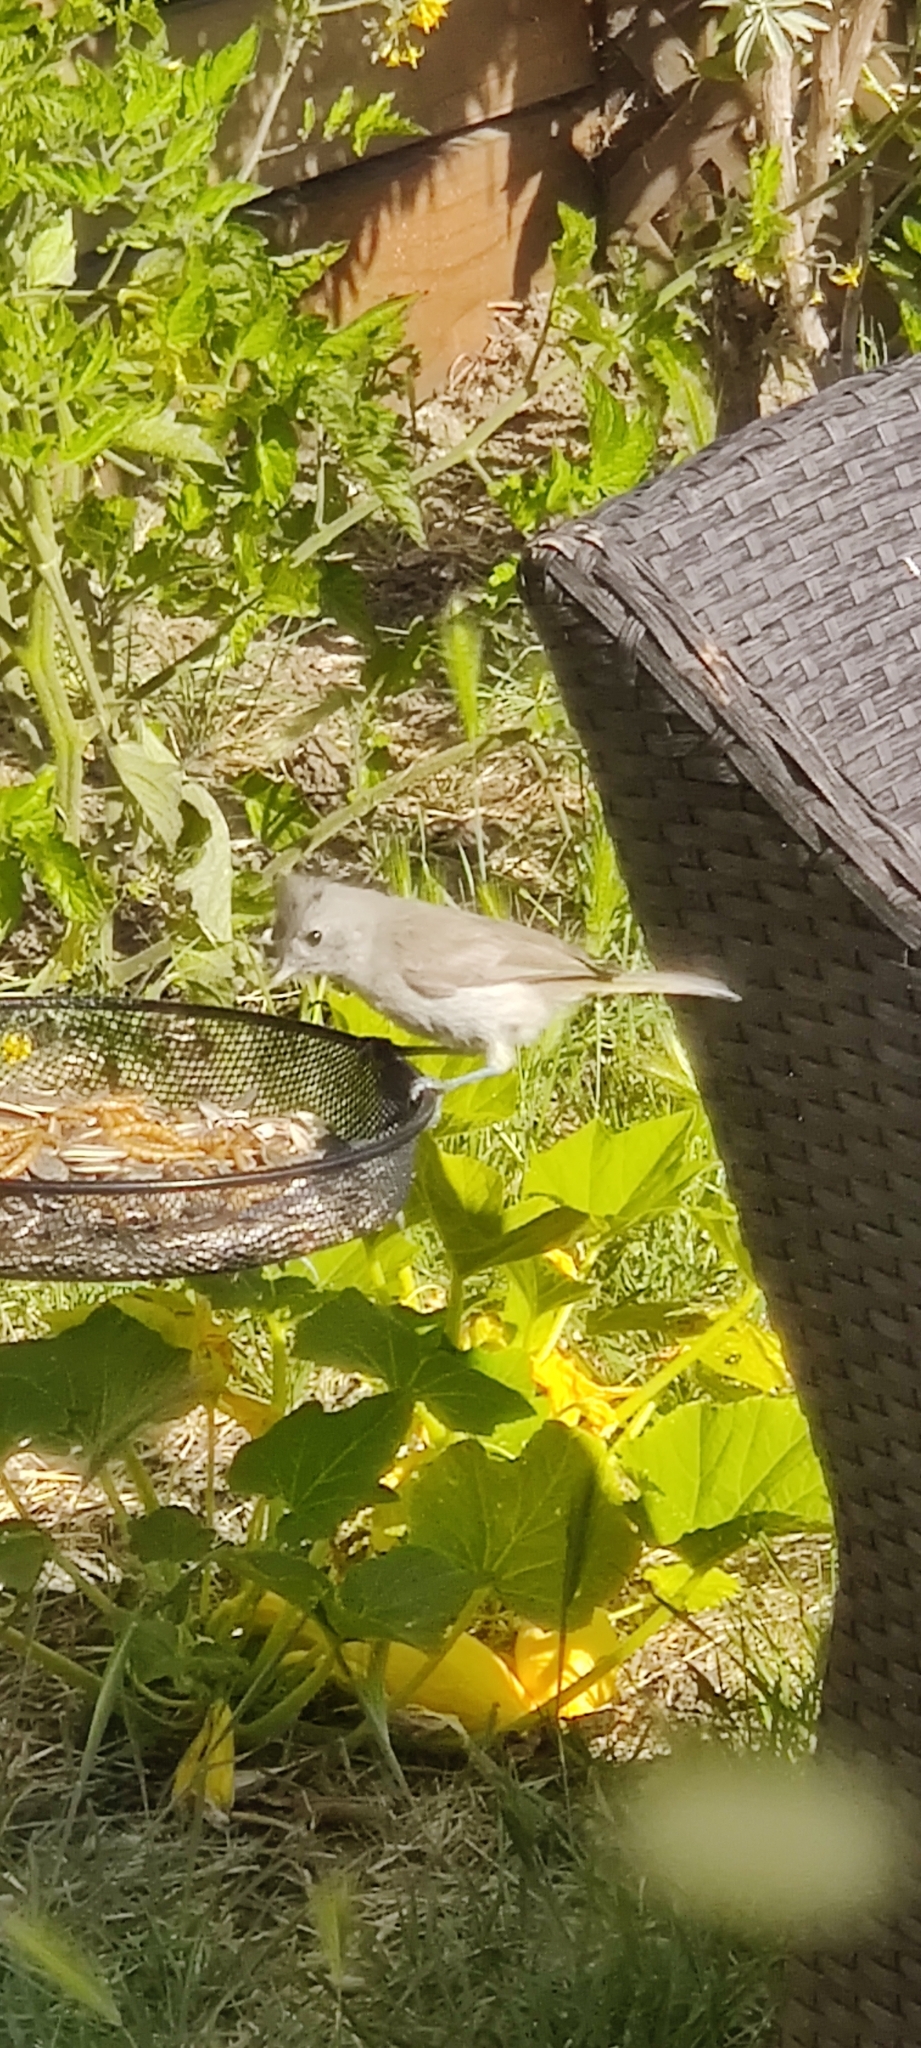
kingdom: Animalia
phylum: Chordata
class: Aves
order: Passeriformes
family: Paridae
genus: Baeolophus
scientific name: Baeolophus inornatus
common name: Oak titmouse
